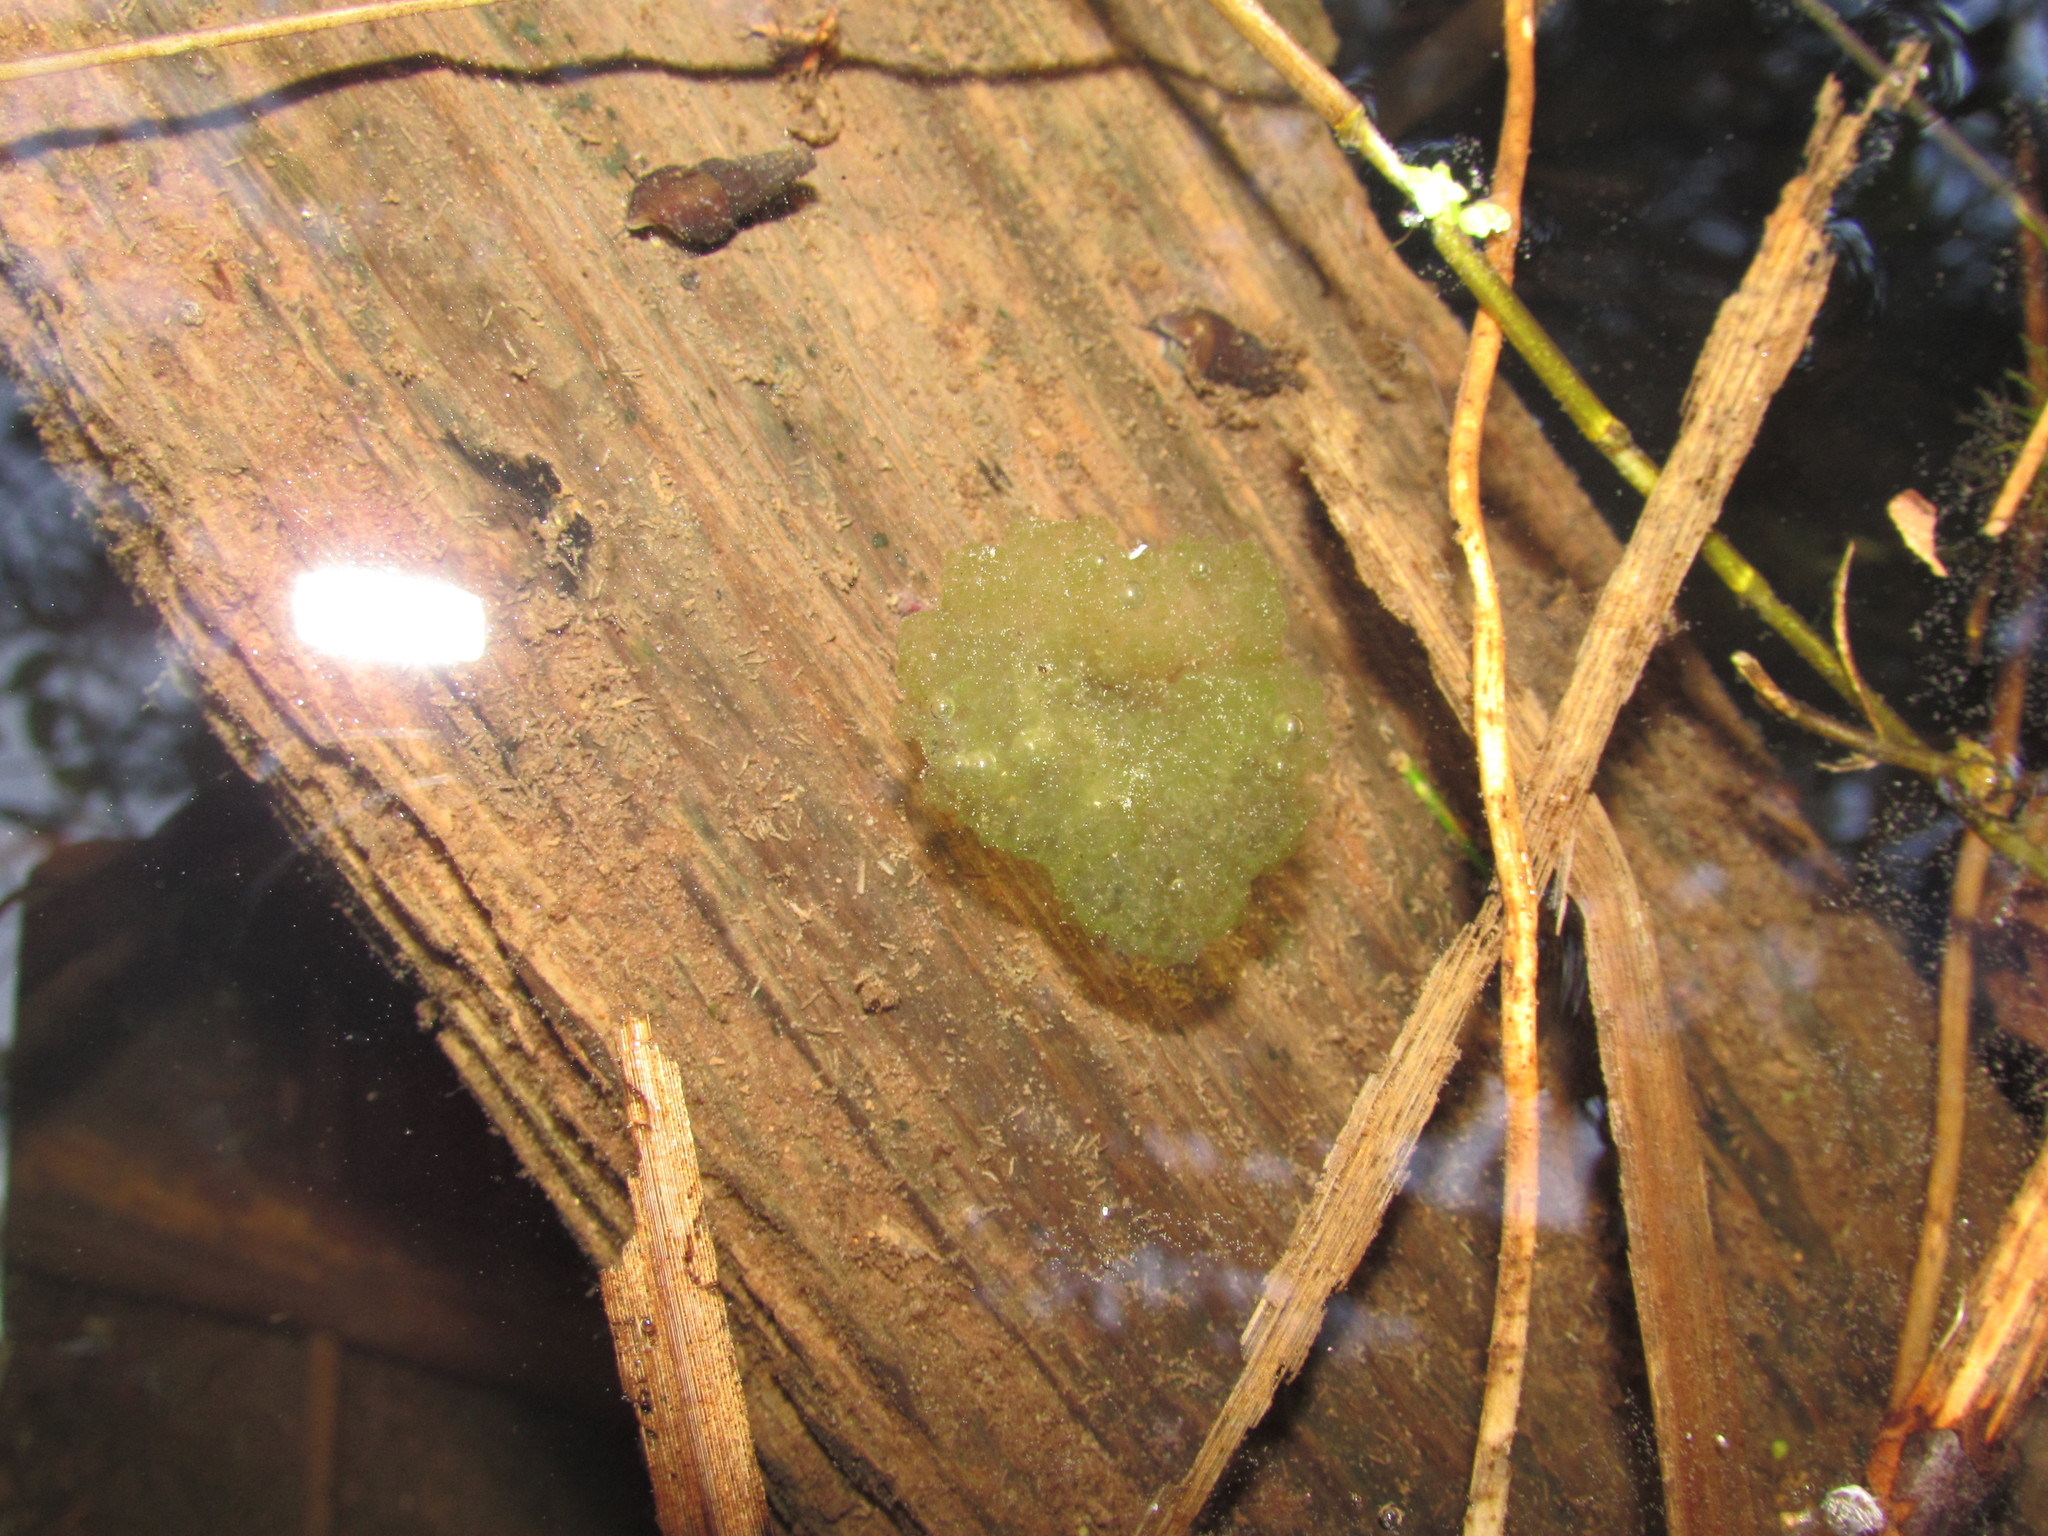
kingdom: Animalia
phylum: Chordata
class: Amphibia
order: Anura
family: Hylidae
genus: Pseudacris
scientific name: Pseudacris regilla
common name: Pacific chorus frog
